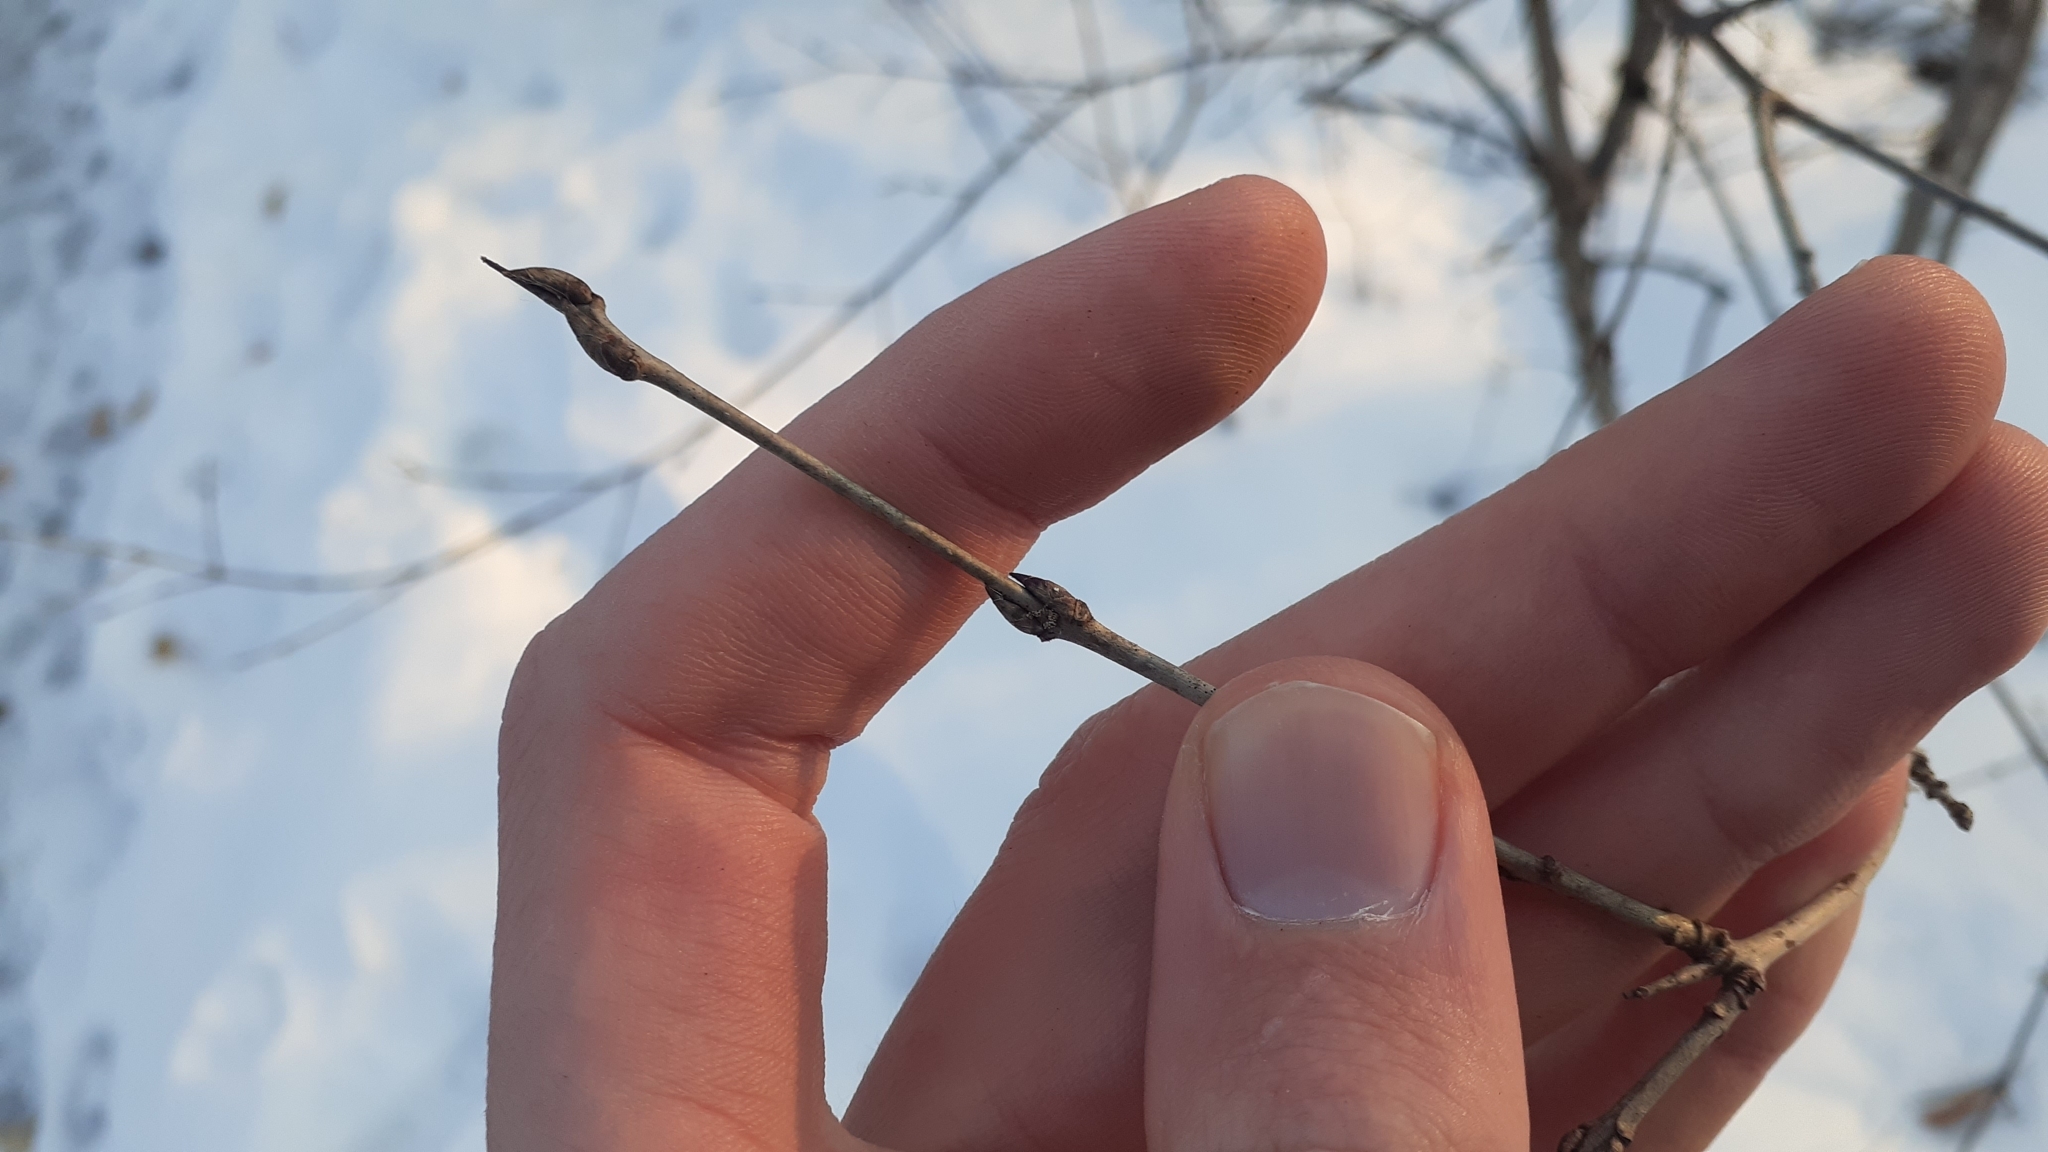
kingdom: Plantae
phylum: Tracheophyta
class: Magnoliopsida
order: Rosales
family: Rhamnaceae
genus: Rhamnus
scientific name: Rhamnus cathartica
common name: Common buckthorn
